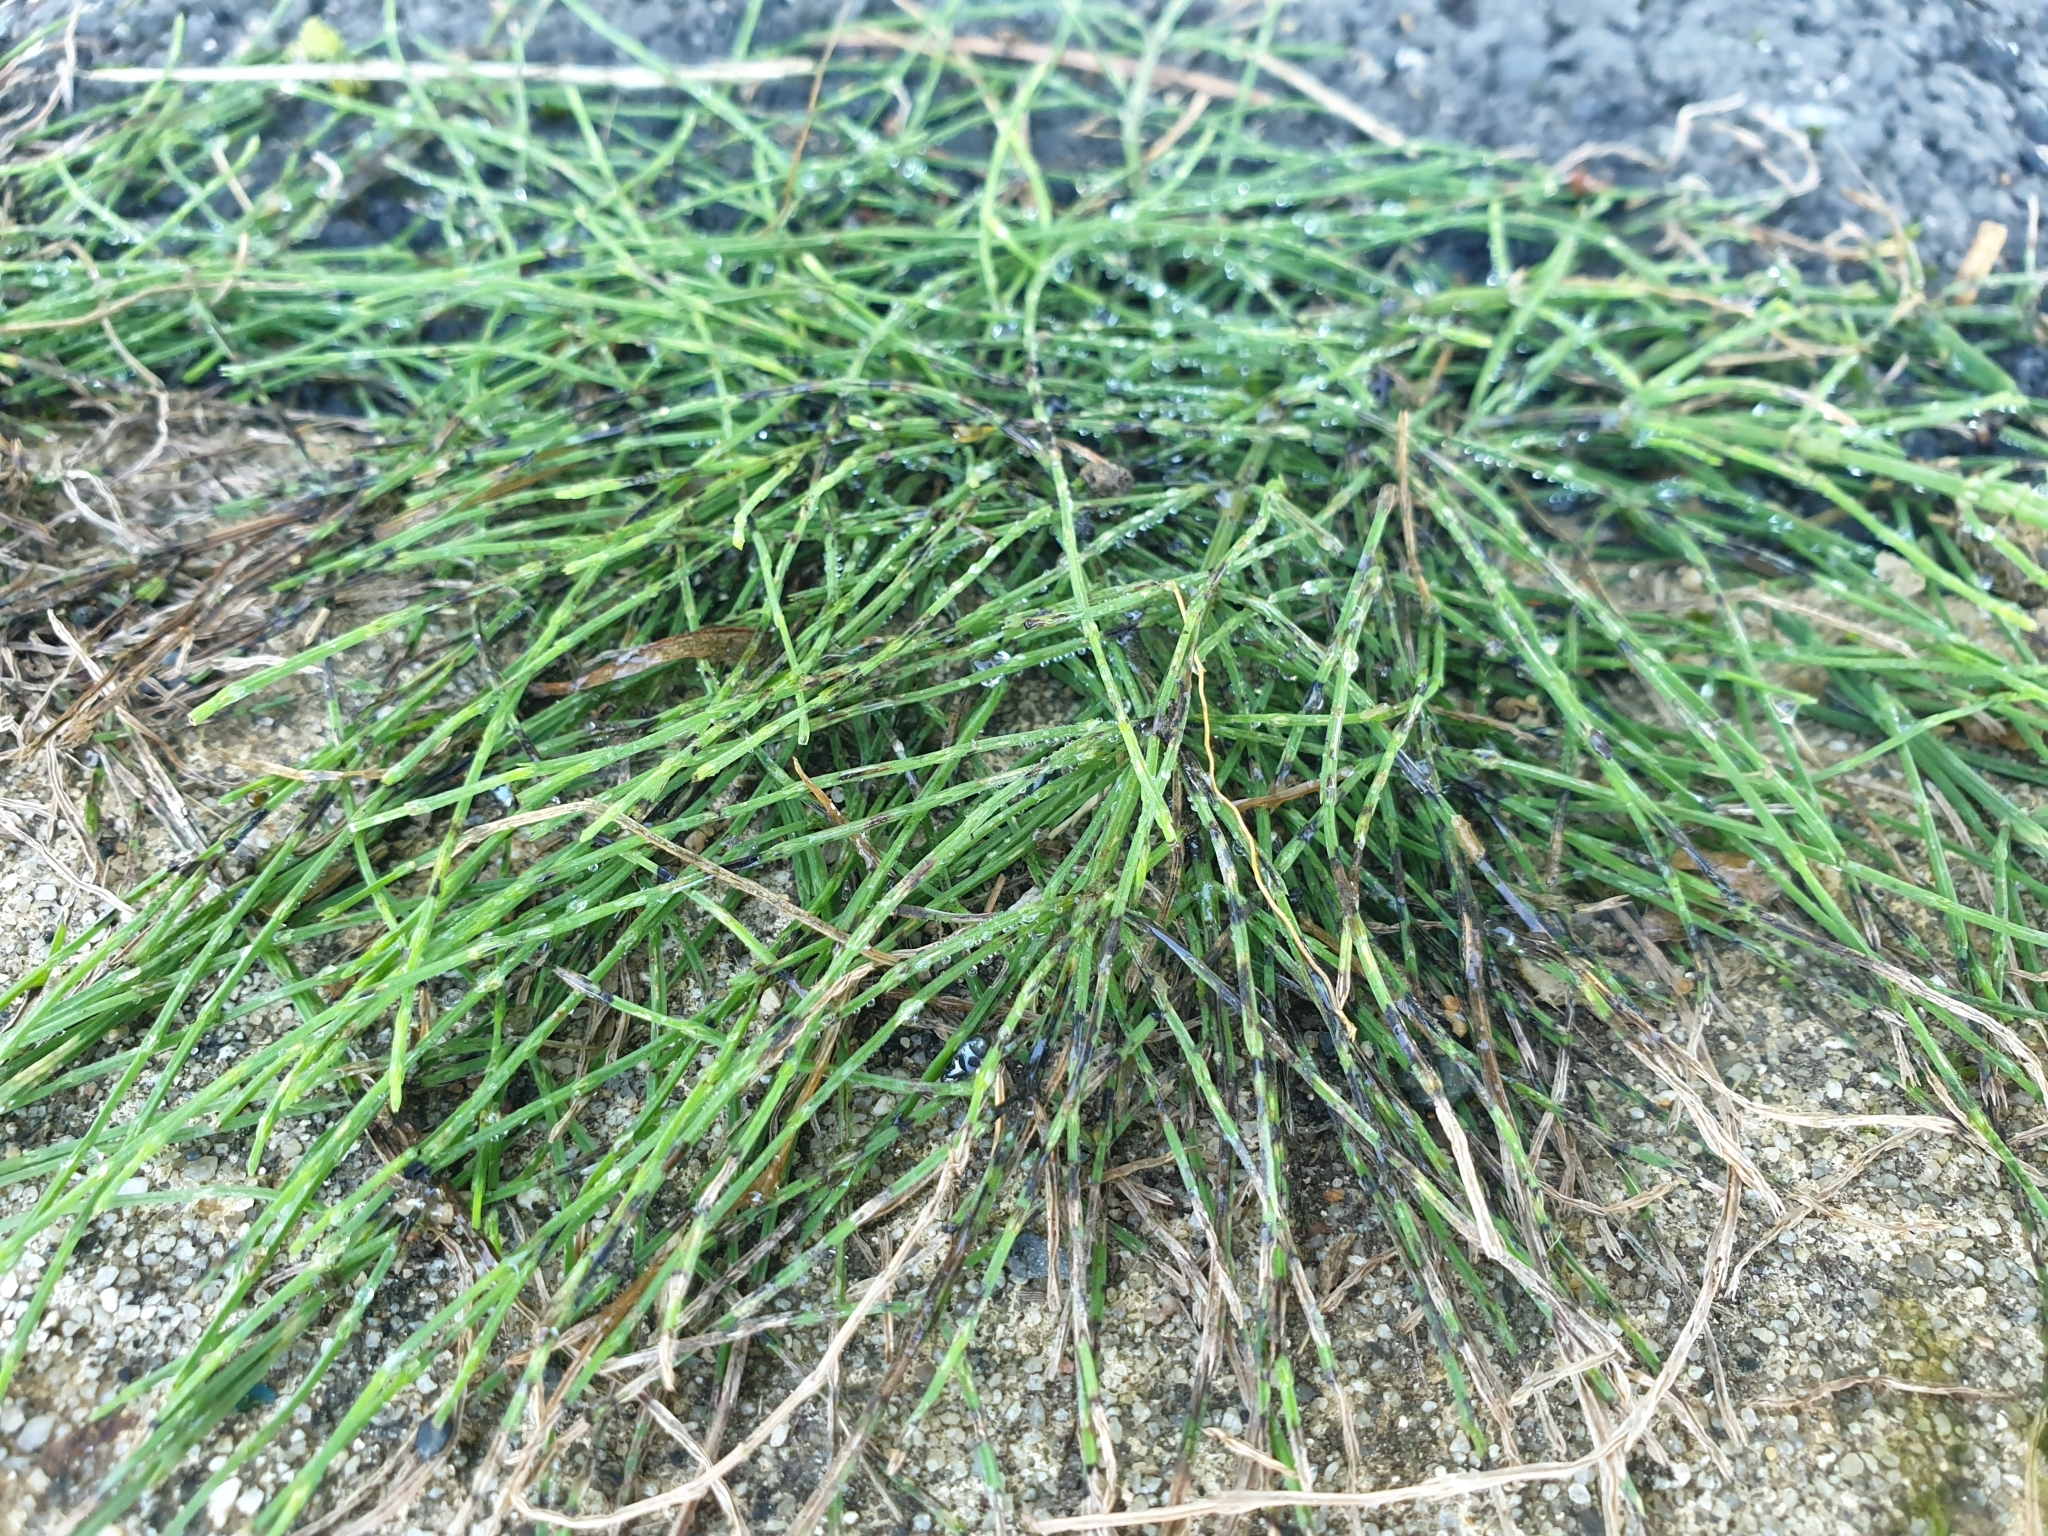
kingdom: Plantae
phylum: Tracheophyta
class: Polypodiopsida
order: Equisetales
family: Equisetaceae
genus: Equisetum
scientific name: Equisetum arvense
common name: Field horsetail
